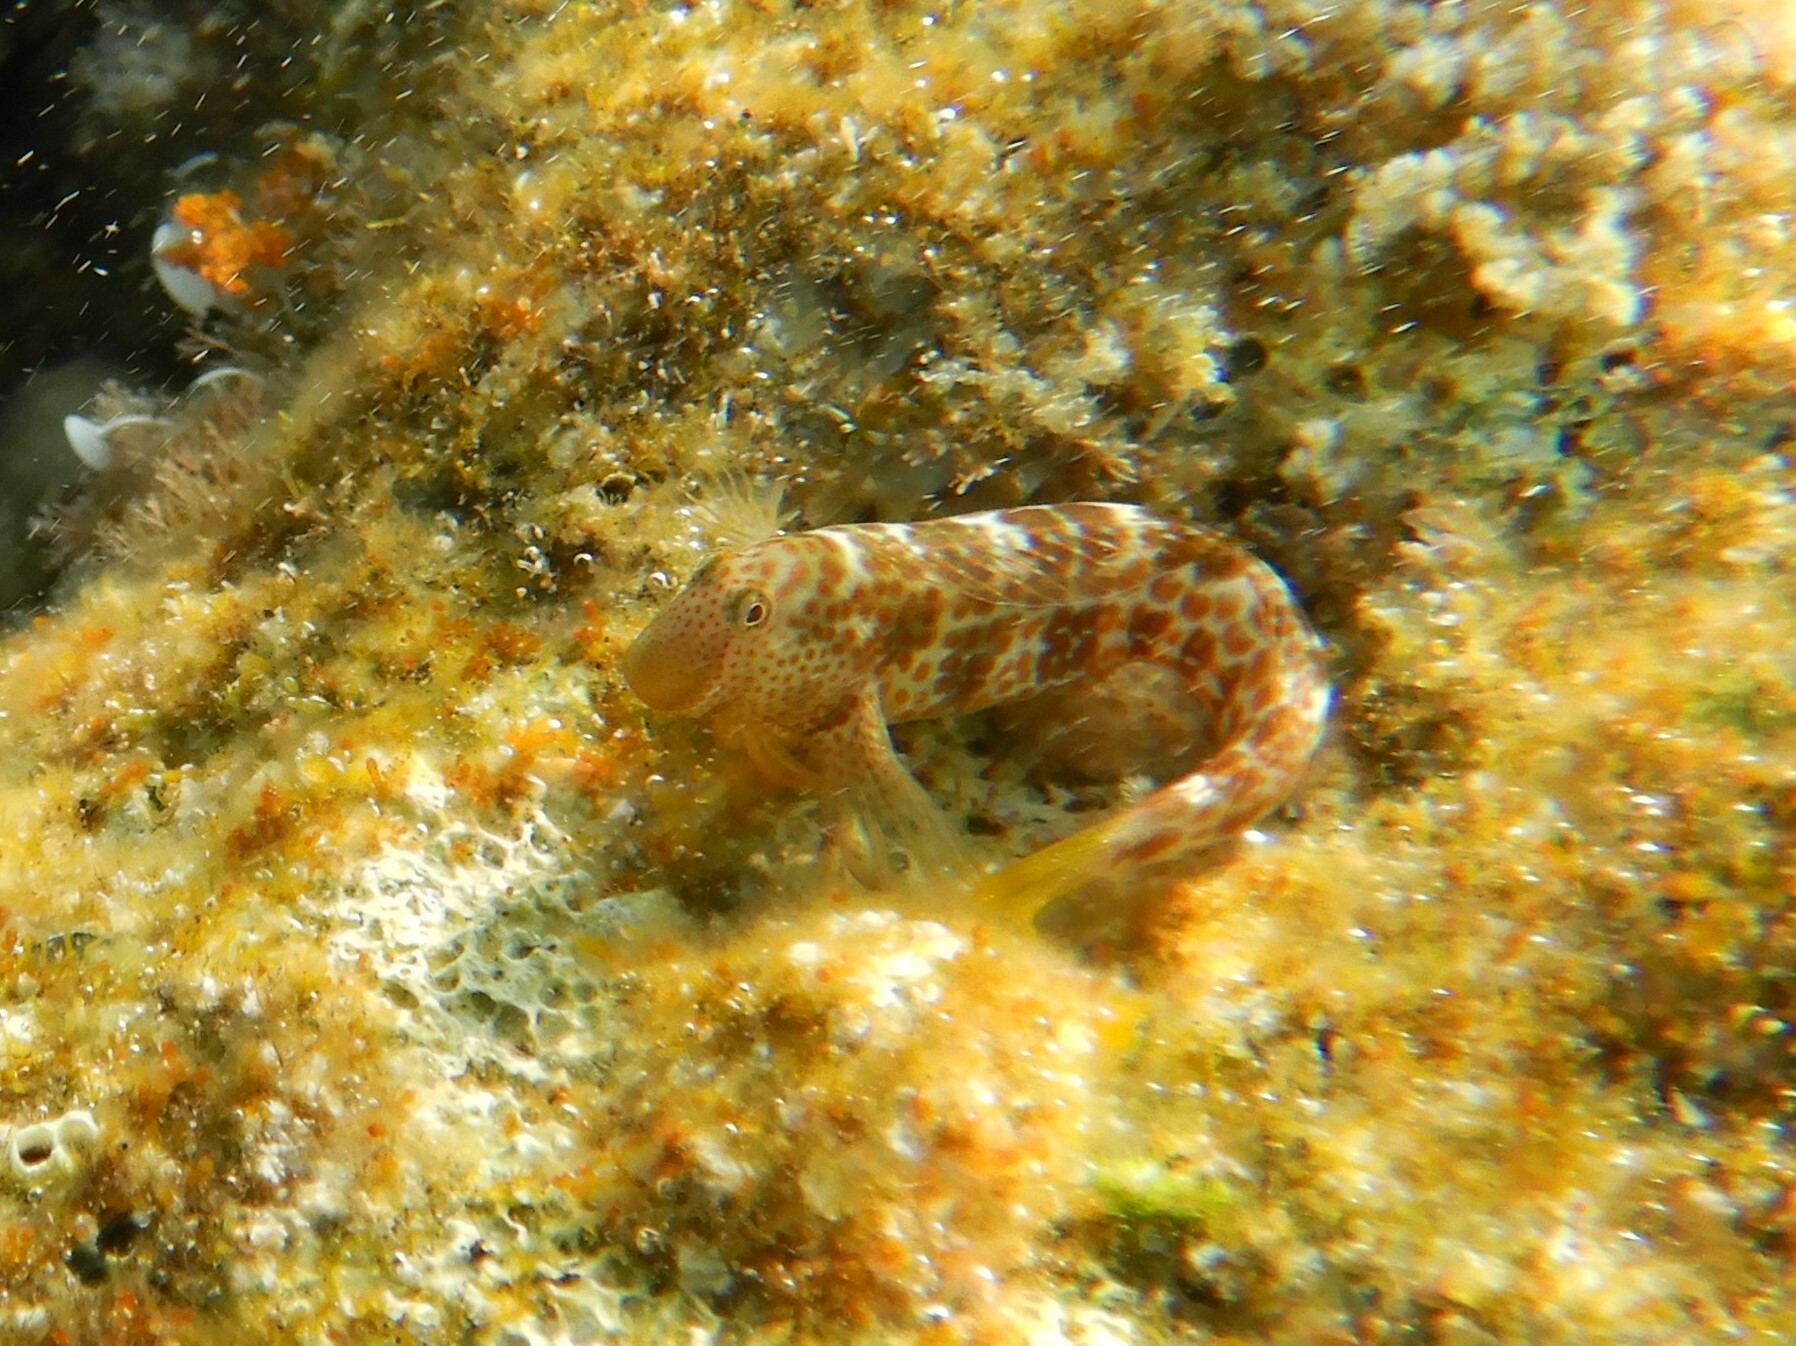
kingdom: Animalia
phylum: Chordata
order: Perciformes
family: Blenniidae
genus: Microlipophrys
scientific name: Microlipophrys canevae
